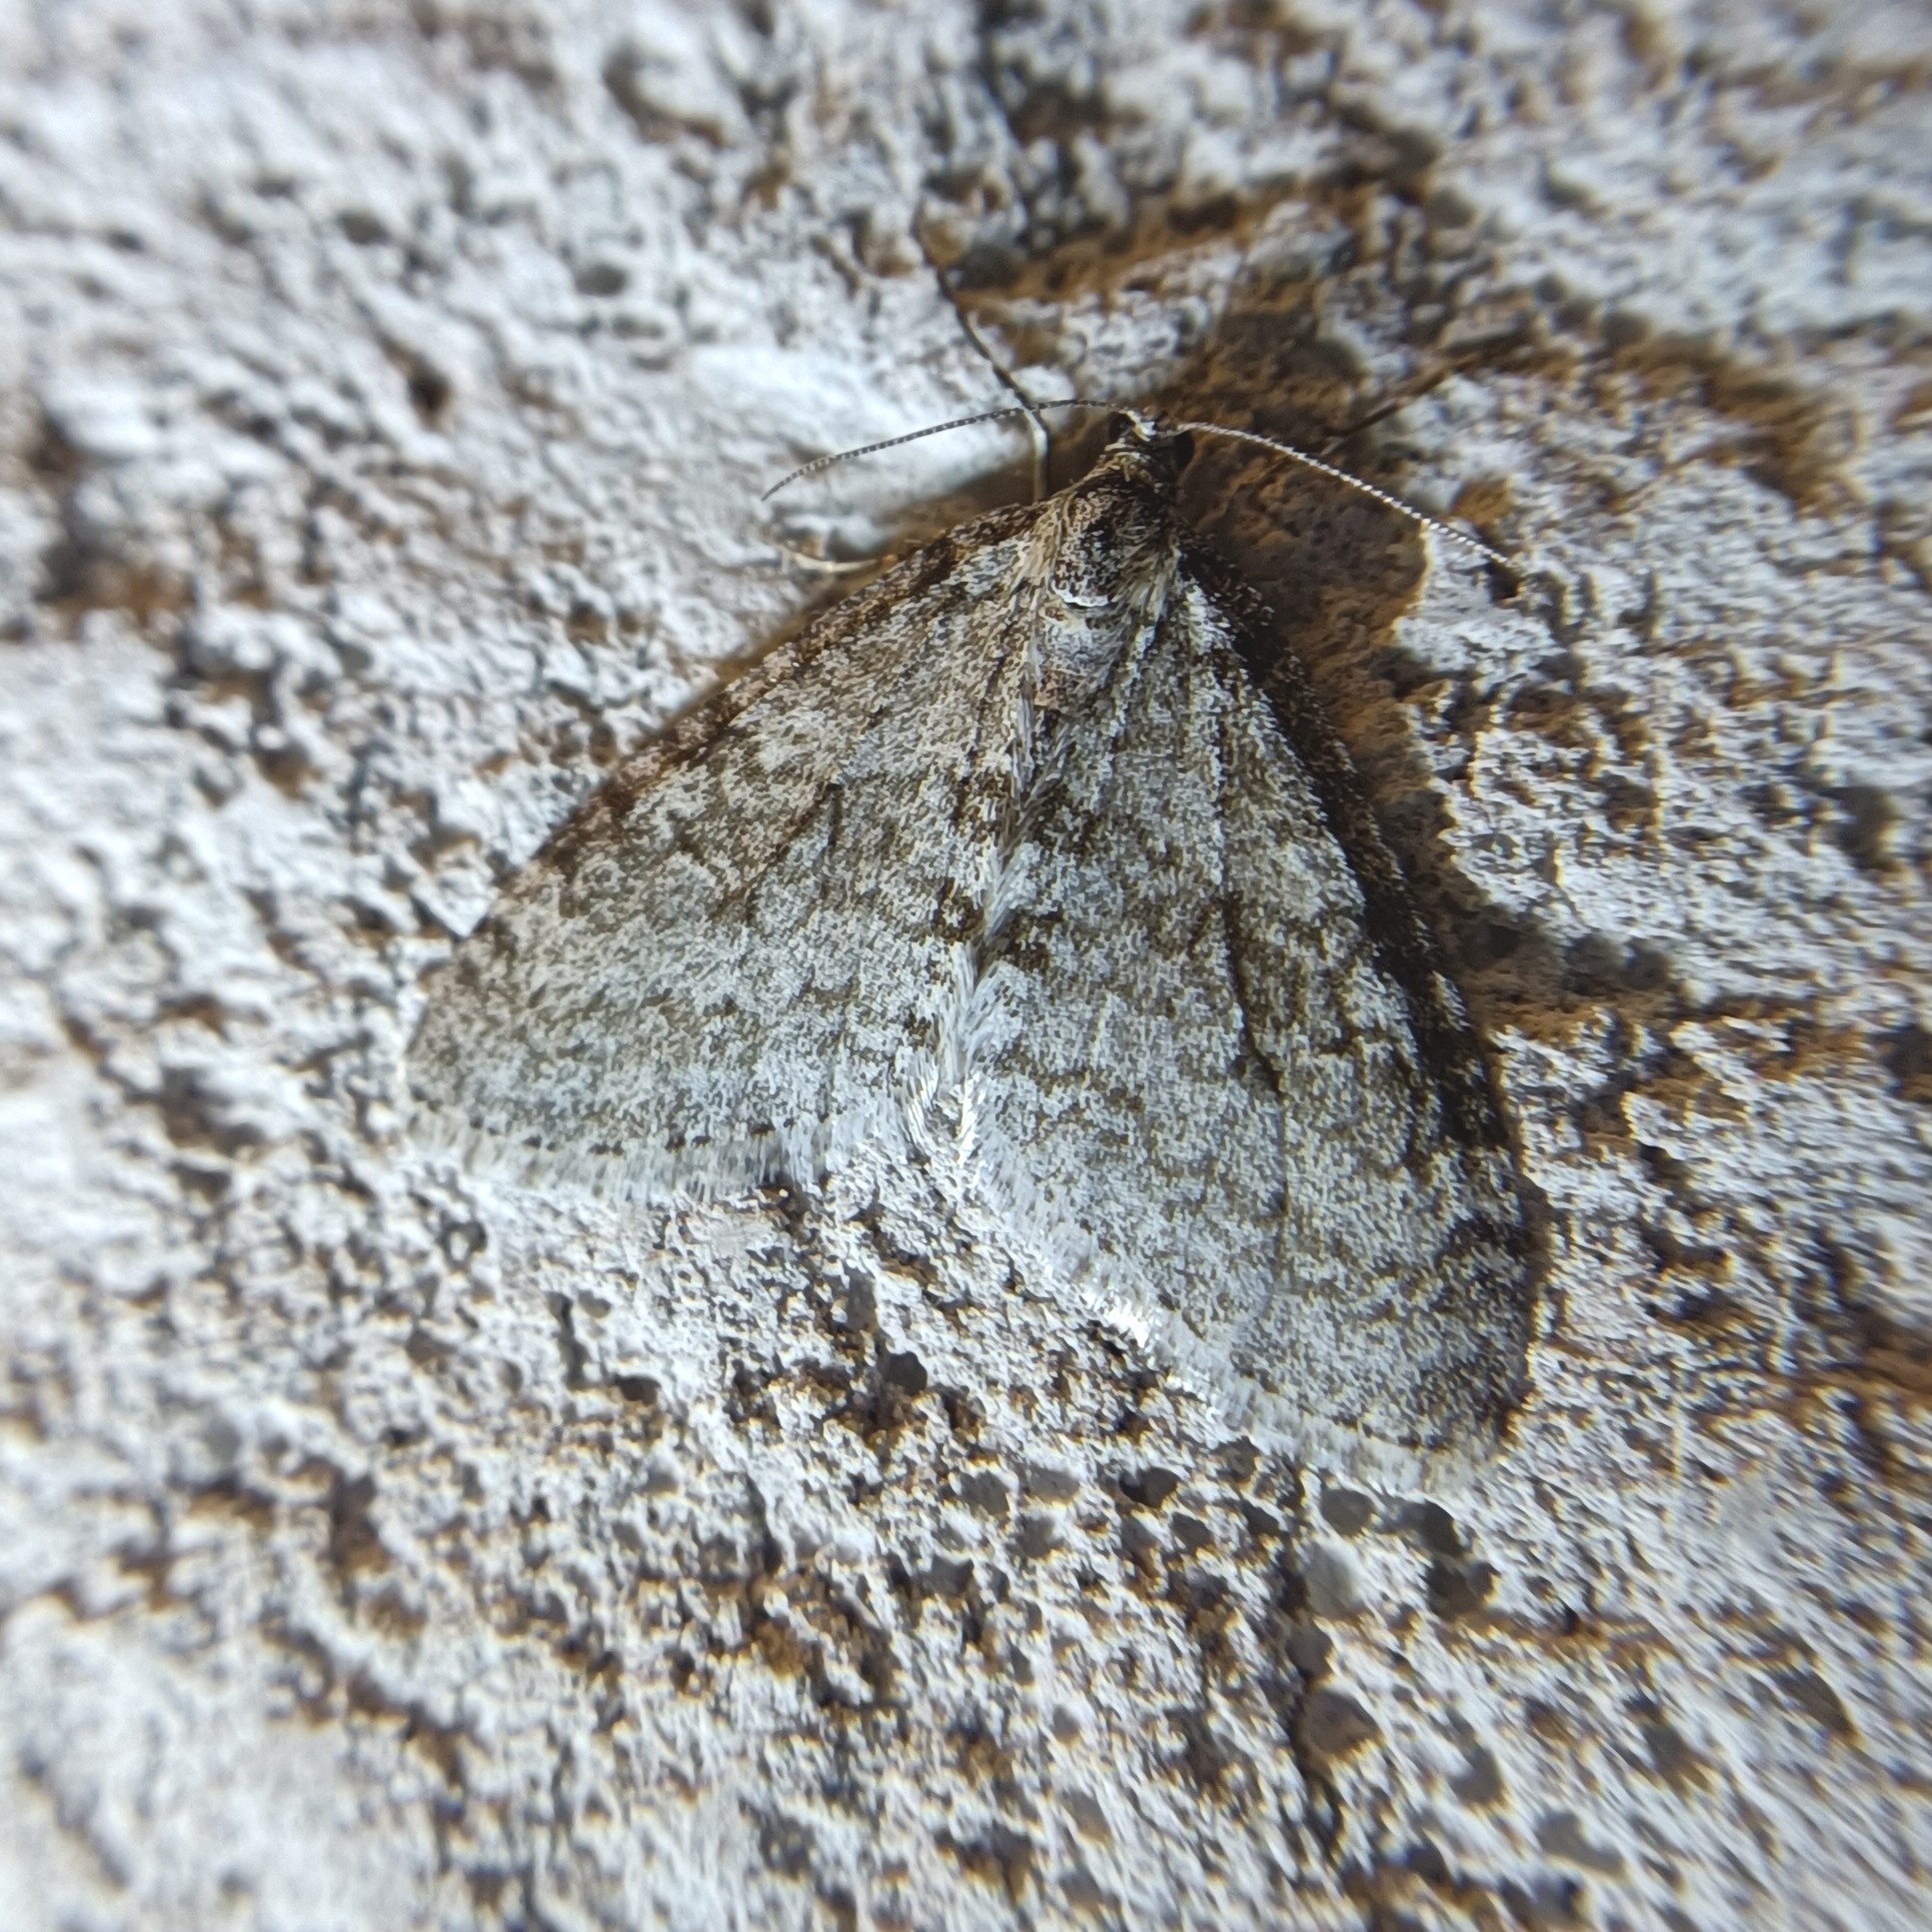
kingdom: Animalia
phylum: Arthropoda
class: Insecta
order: Lepidoptera
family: Geometridae
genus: Trichopteryx
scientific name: Trichopteryx carpinata
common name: Early tooth-striped
